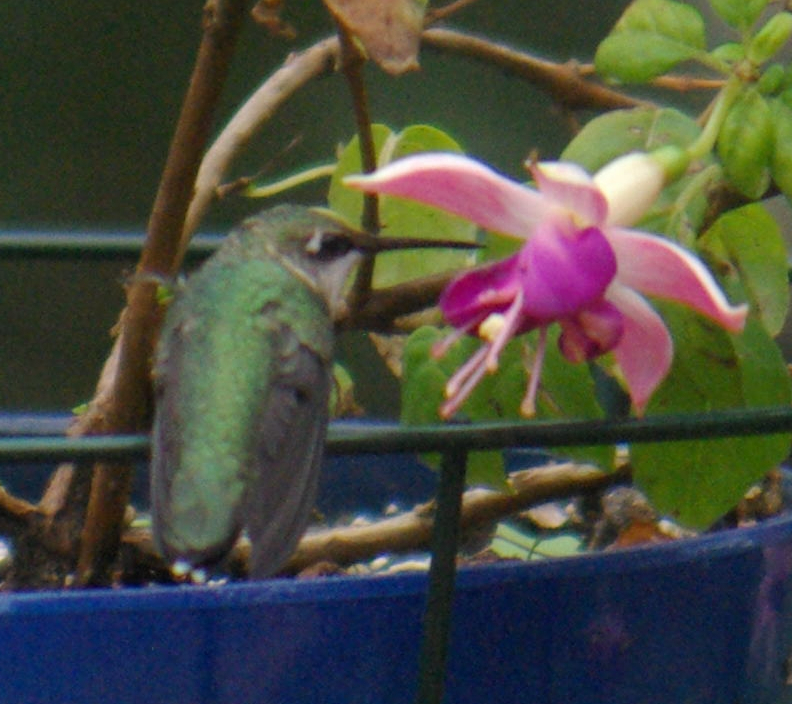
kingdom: Animalia
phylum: Chordata
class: Aves
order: Apodiformes
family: Trochilidae
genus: Archilochus
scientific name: Archilochus colubris
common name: Ruby-throated hummingbird
